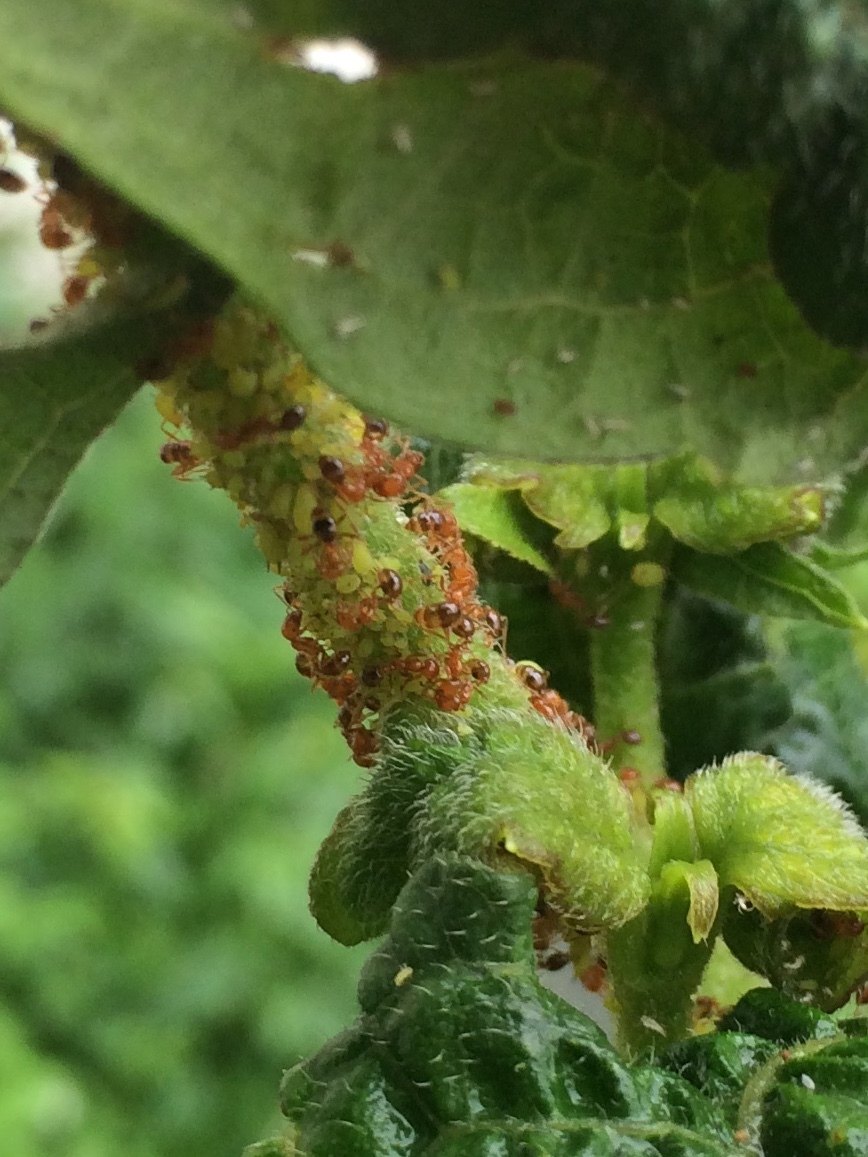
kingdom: Animalia
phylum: Arthropoda
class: Insecta
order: Hymenoptera
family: Formicidae
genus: Solenopsis
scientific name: Solenopsis geminata
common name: Tropical fire ant
